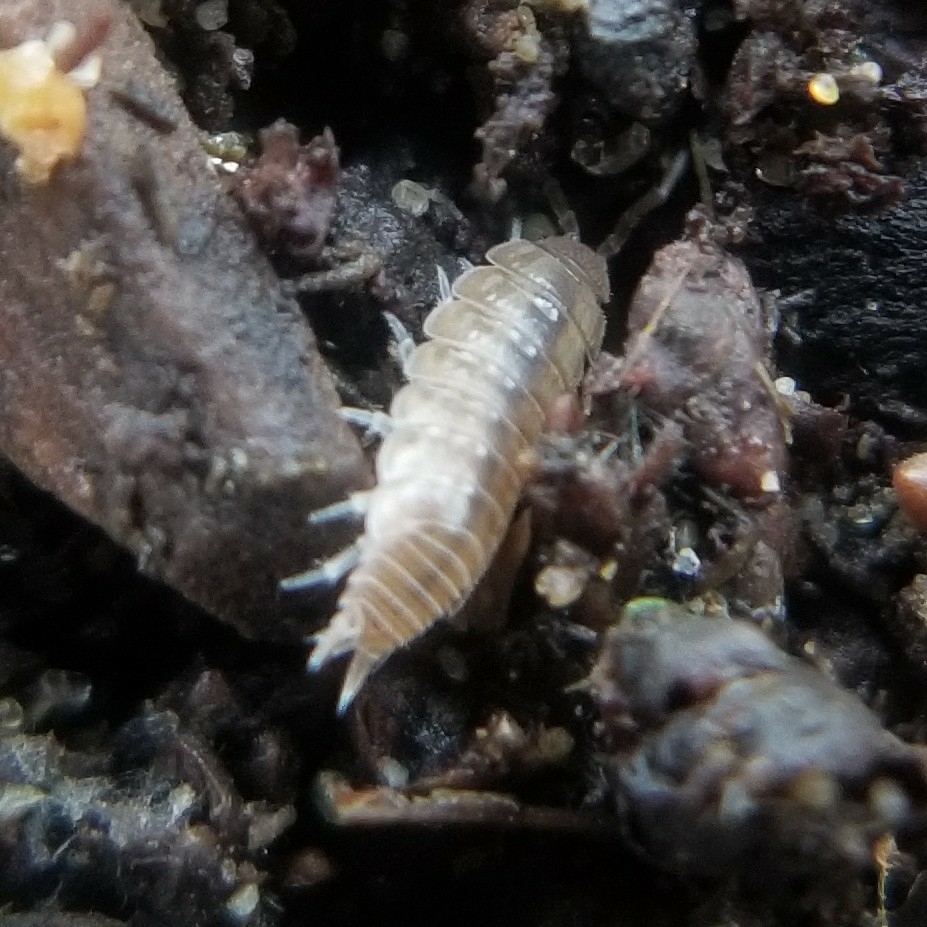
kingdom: Animalia
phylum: Arthropoda
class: Malacostraca
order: Isopoda
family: Platyarthridae
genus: Niambia
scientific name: Niambia capensis
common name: Isopod
